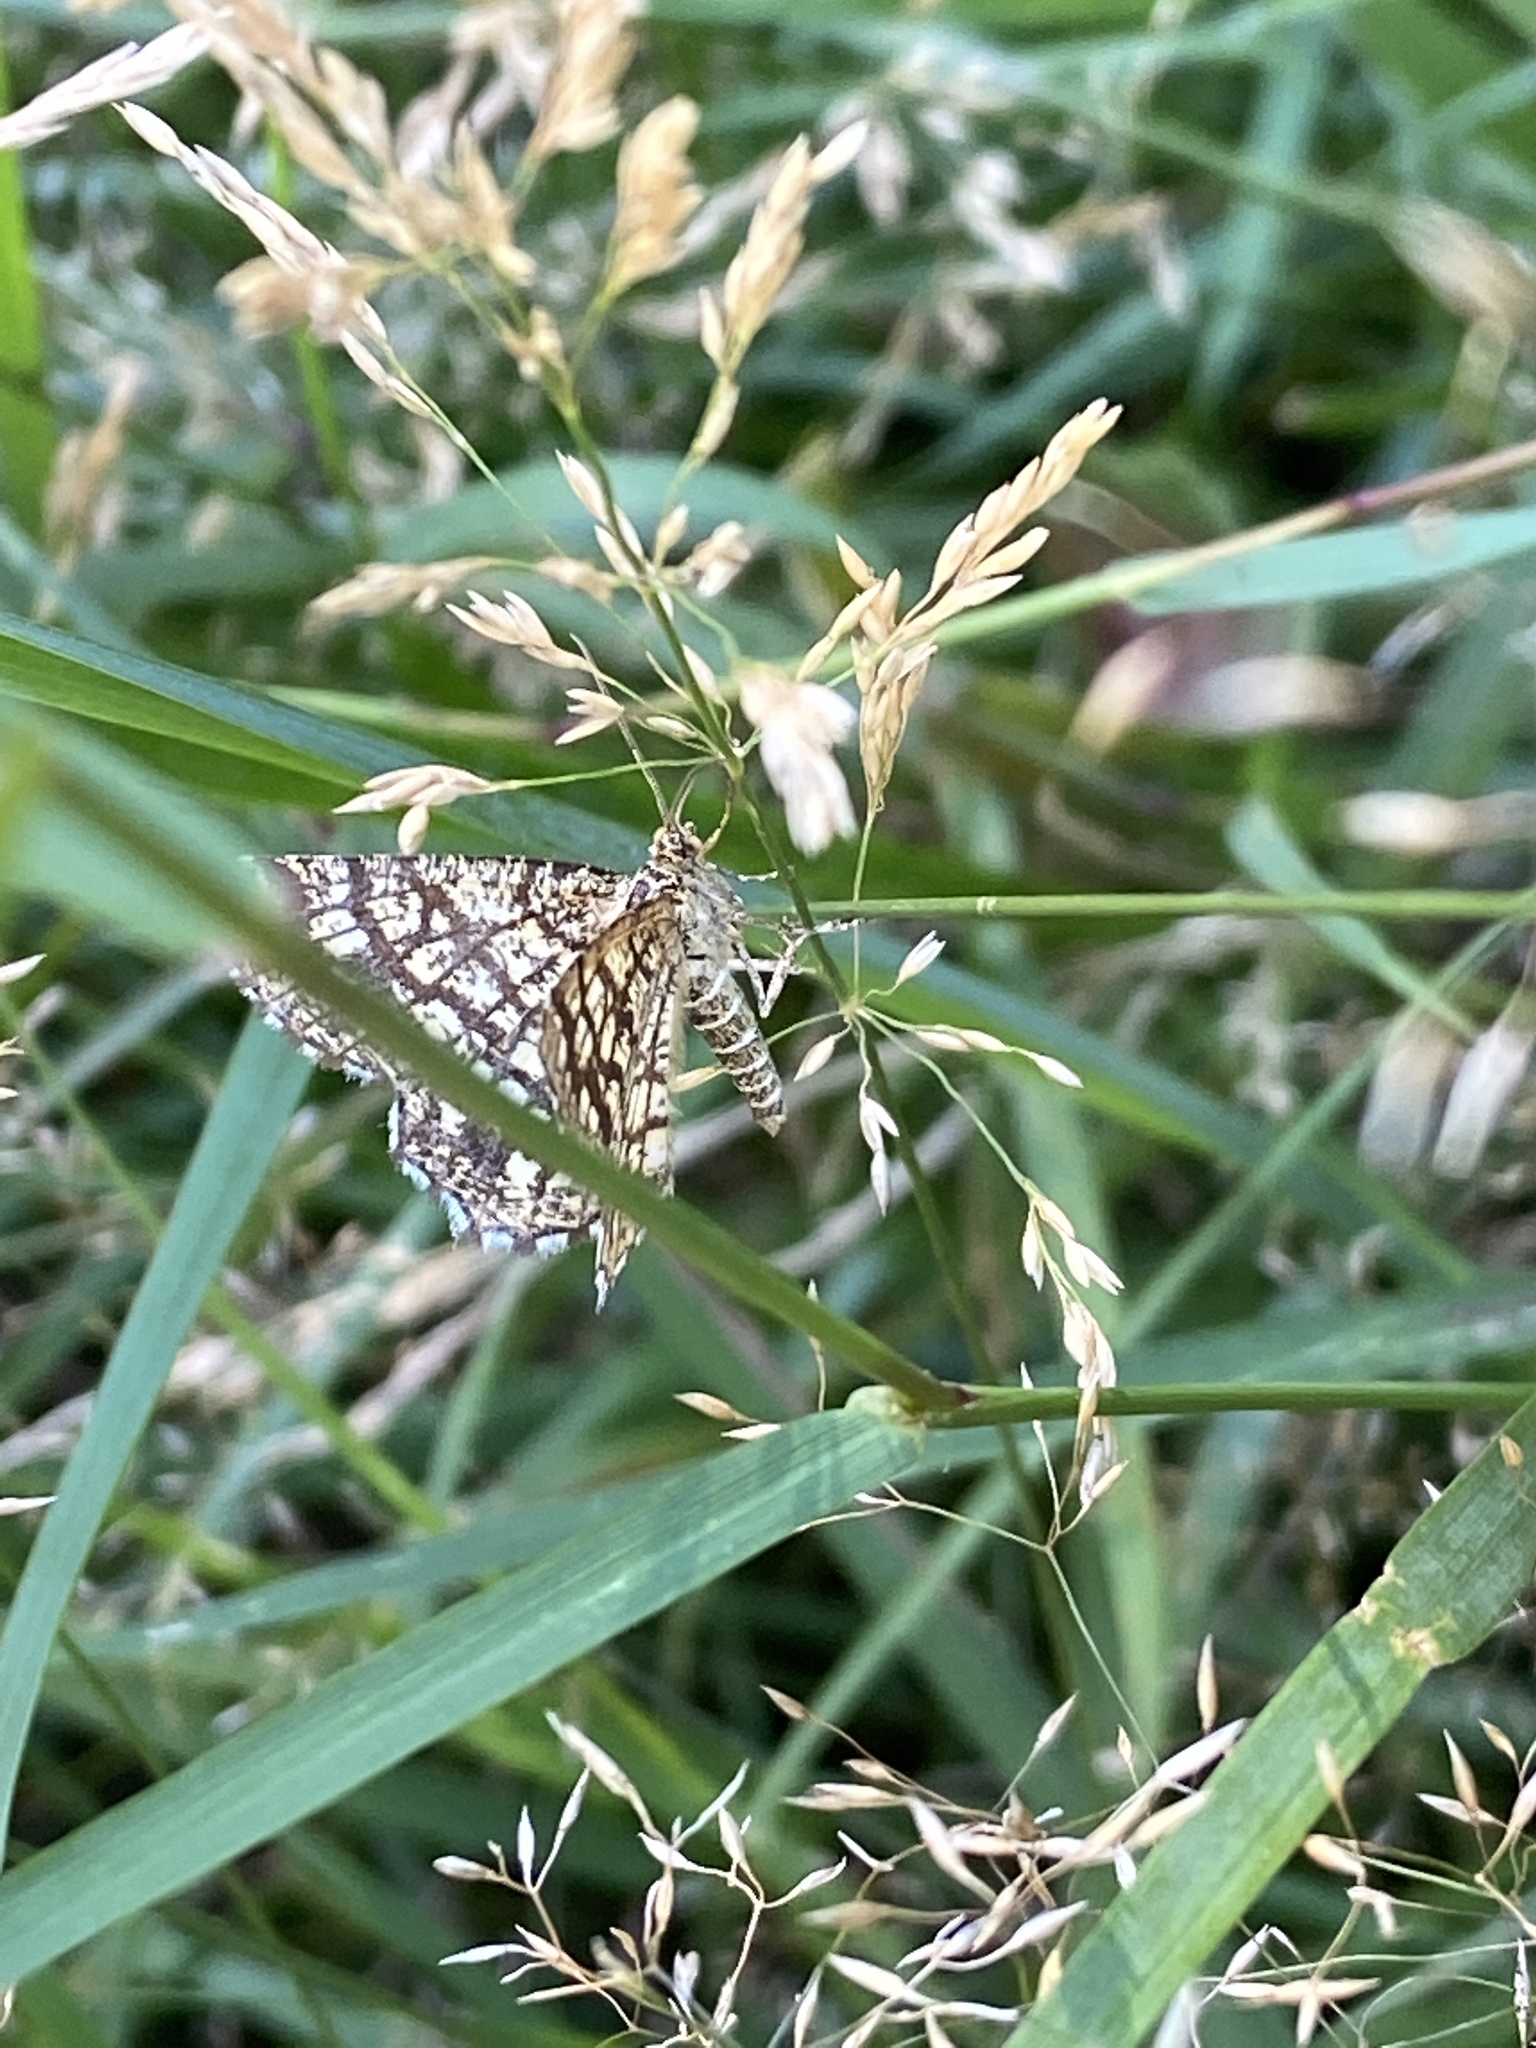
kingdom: Animalia
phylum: Arthropoda
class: Insecta
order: Lepidoptera
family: Geometridae
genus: Chiasmia
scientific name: Chiasmia clathrata
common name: Latticed heath
